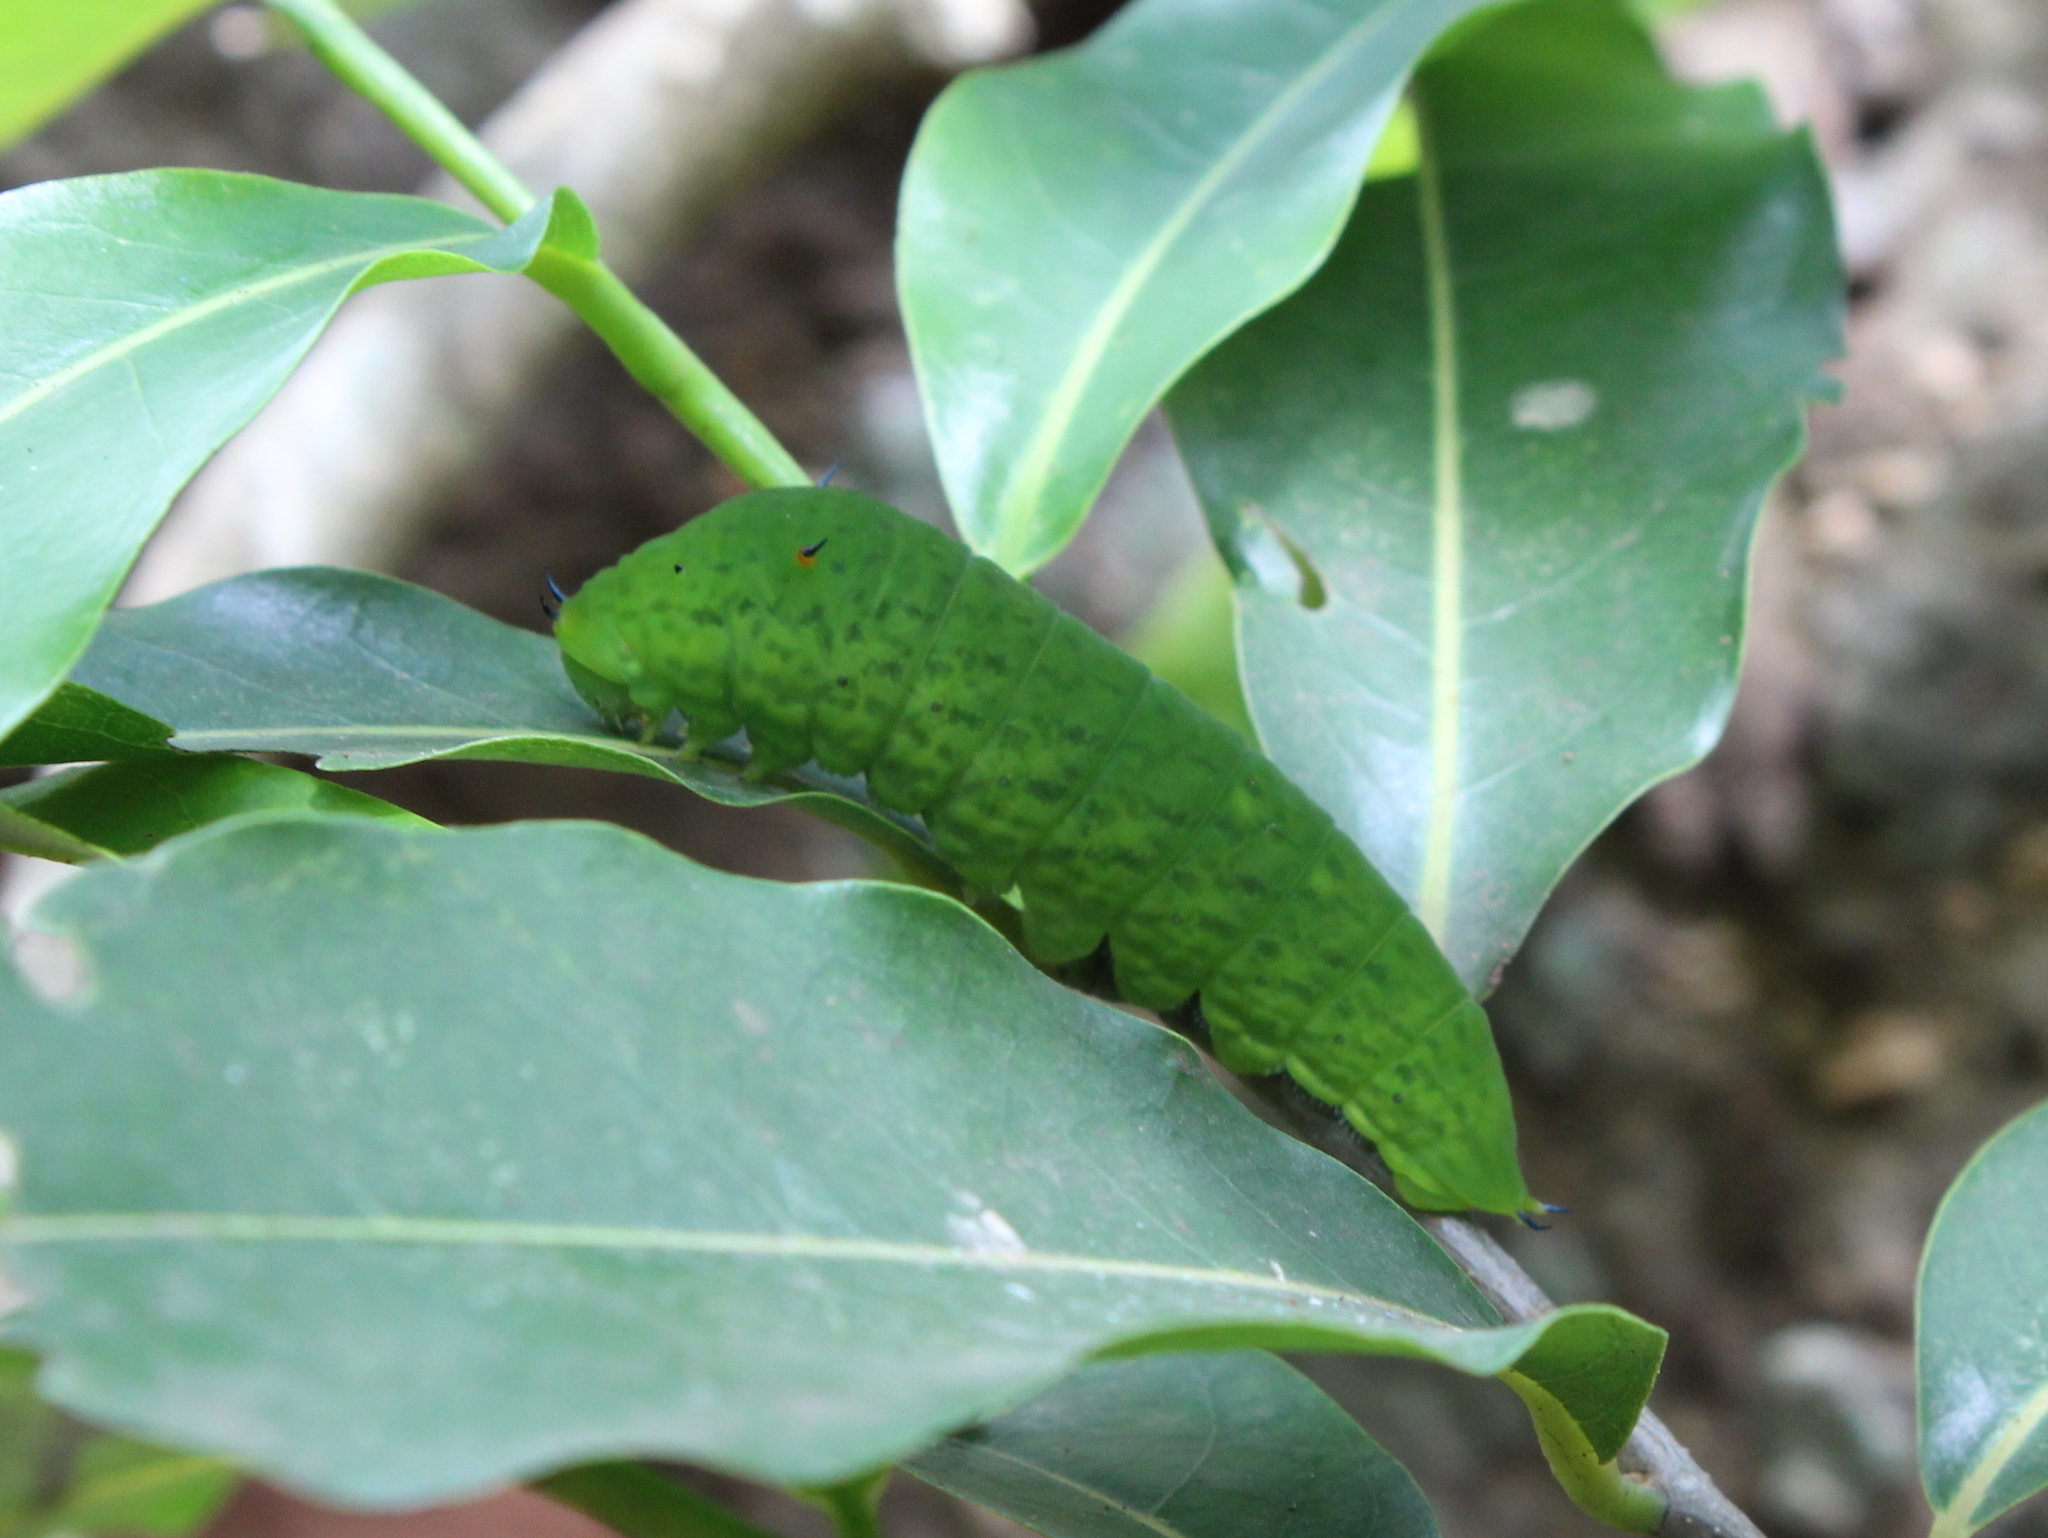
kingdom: Animalia
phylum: Arthropoda
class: Insecta
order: Lepidoptera
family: Papilionidae
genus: Graphium
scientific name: Graphium agamemnon
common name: Tailed jay
